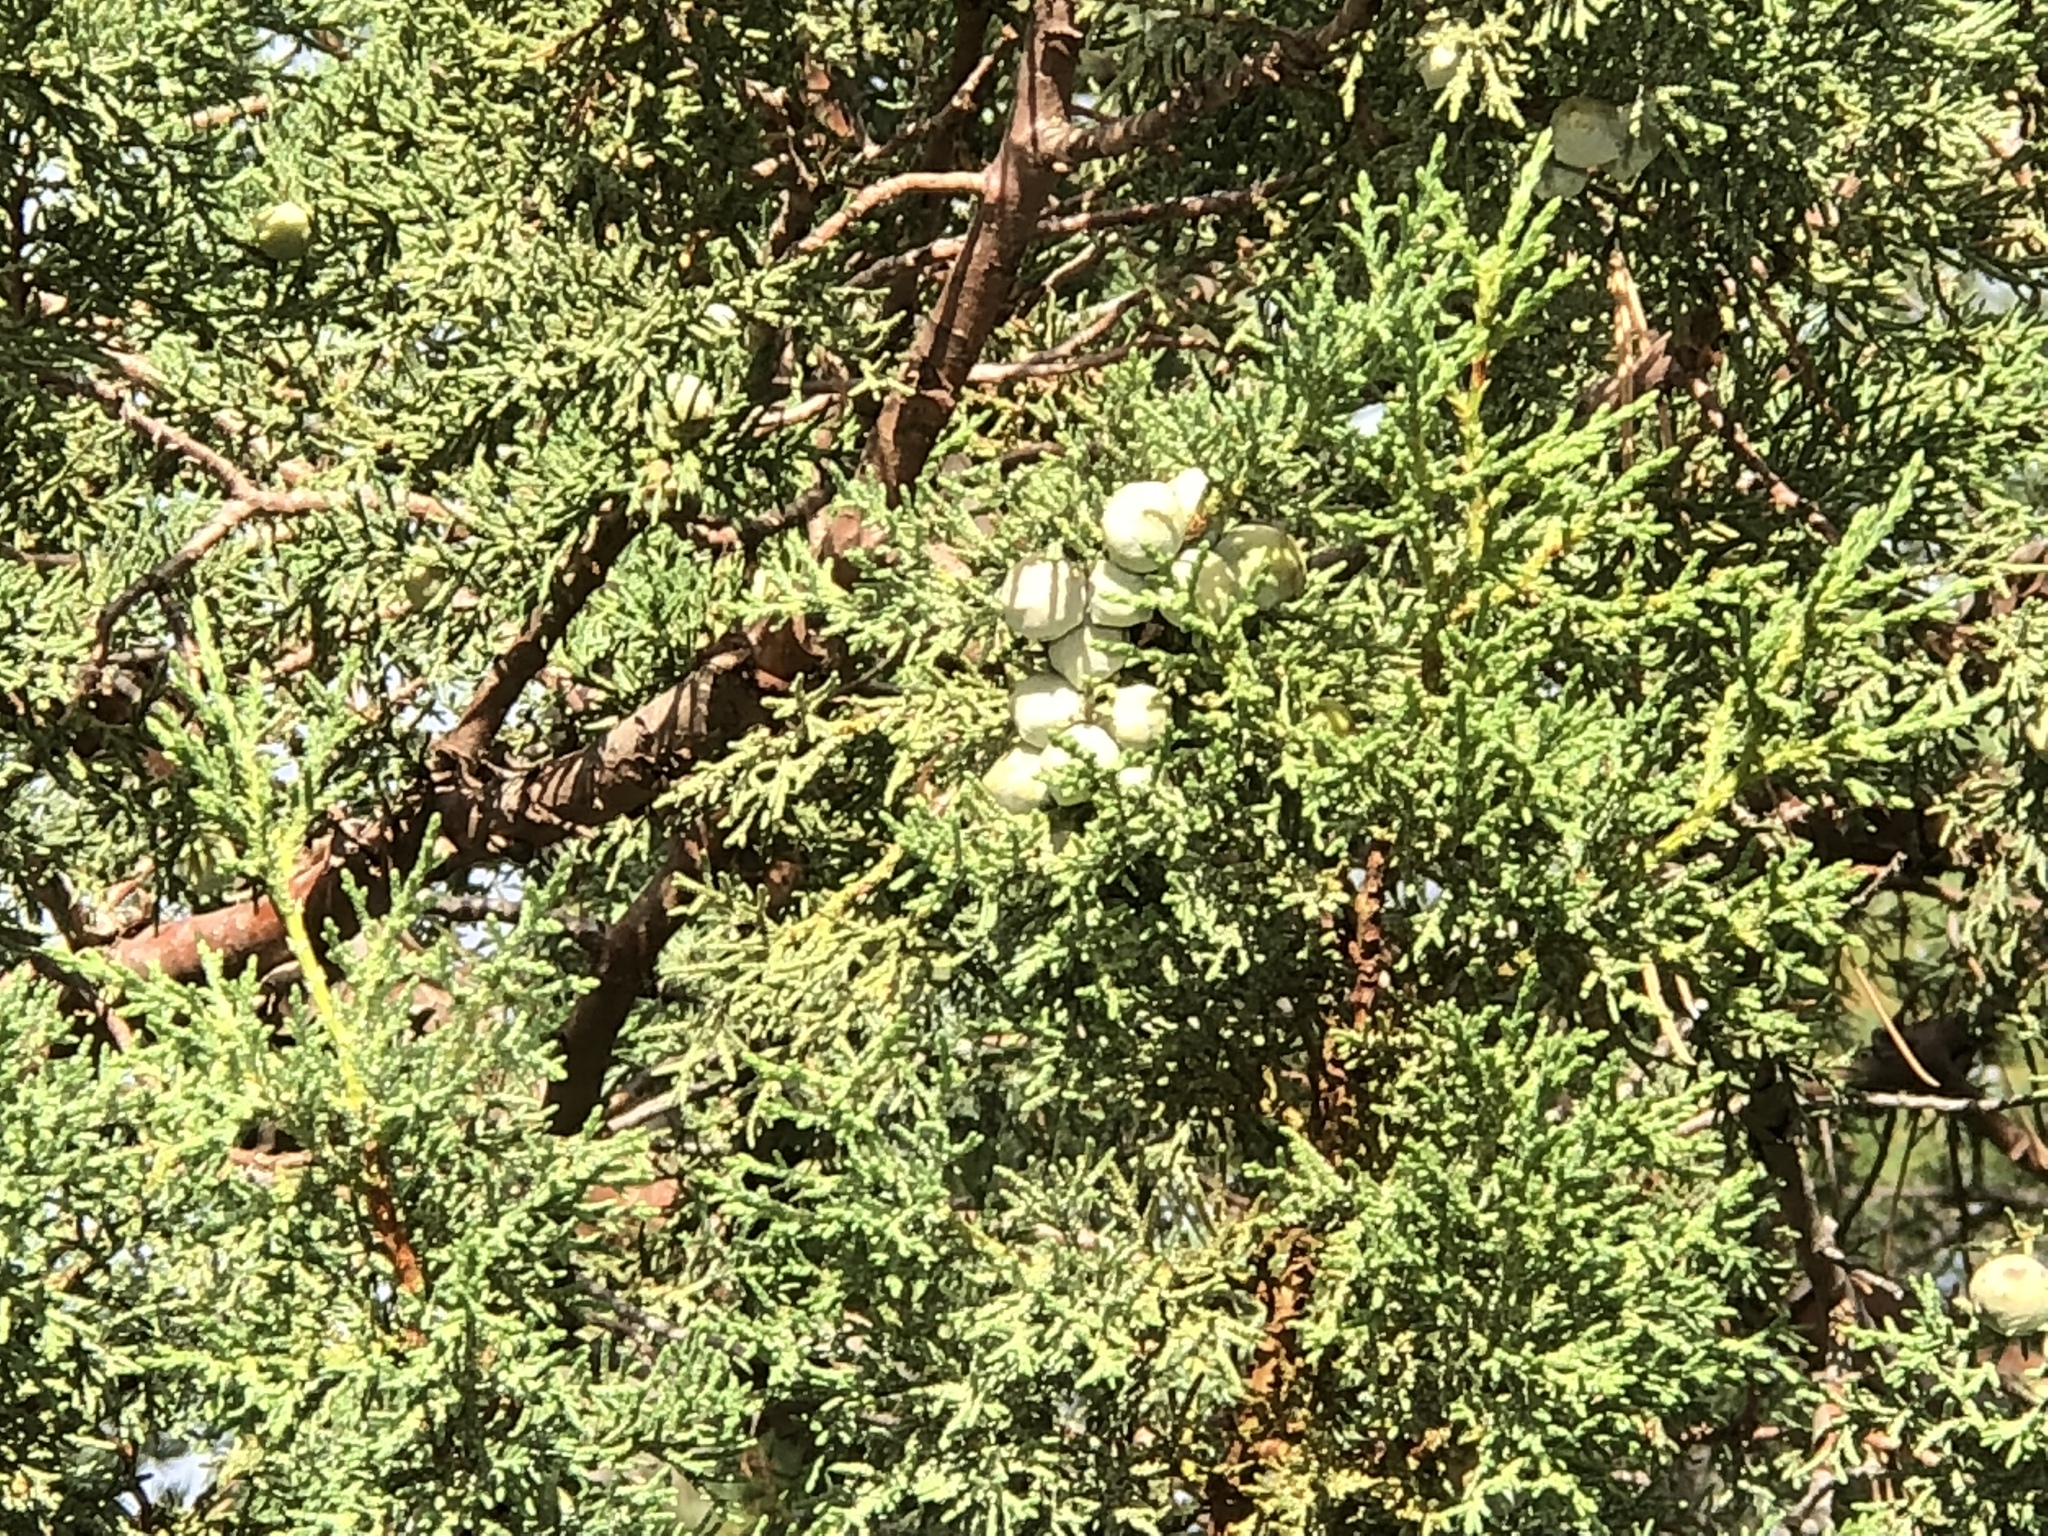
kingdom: Plantae
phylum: Tracheophyta
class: Pinopsida
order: Pinales
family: Cupressaceae
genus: Juniperus
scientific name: Juniperus deppeana
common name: Alligator juniper
